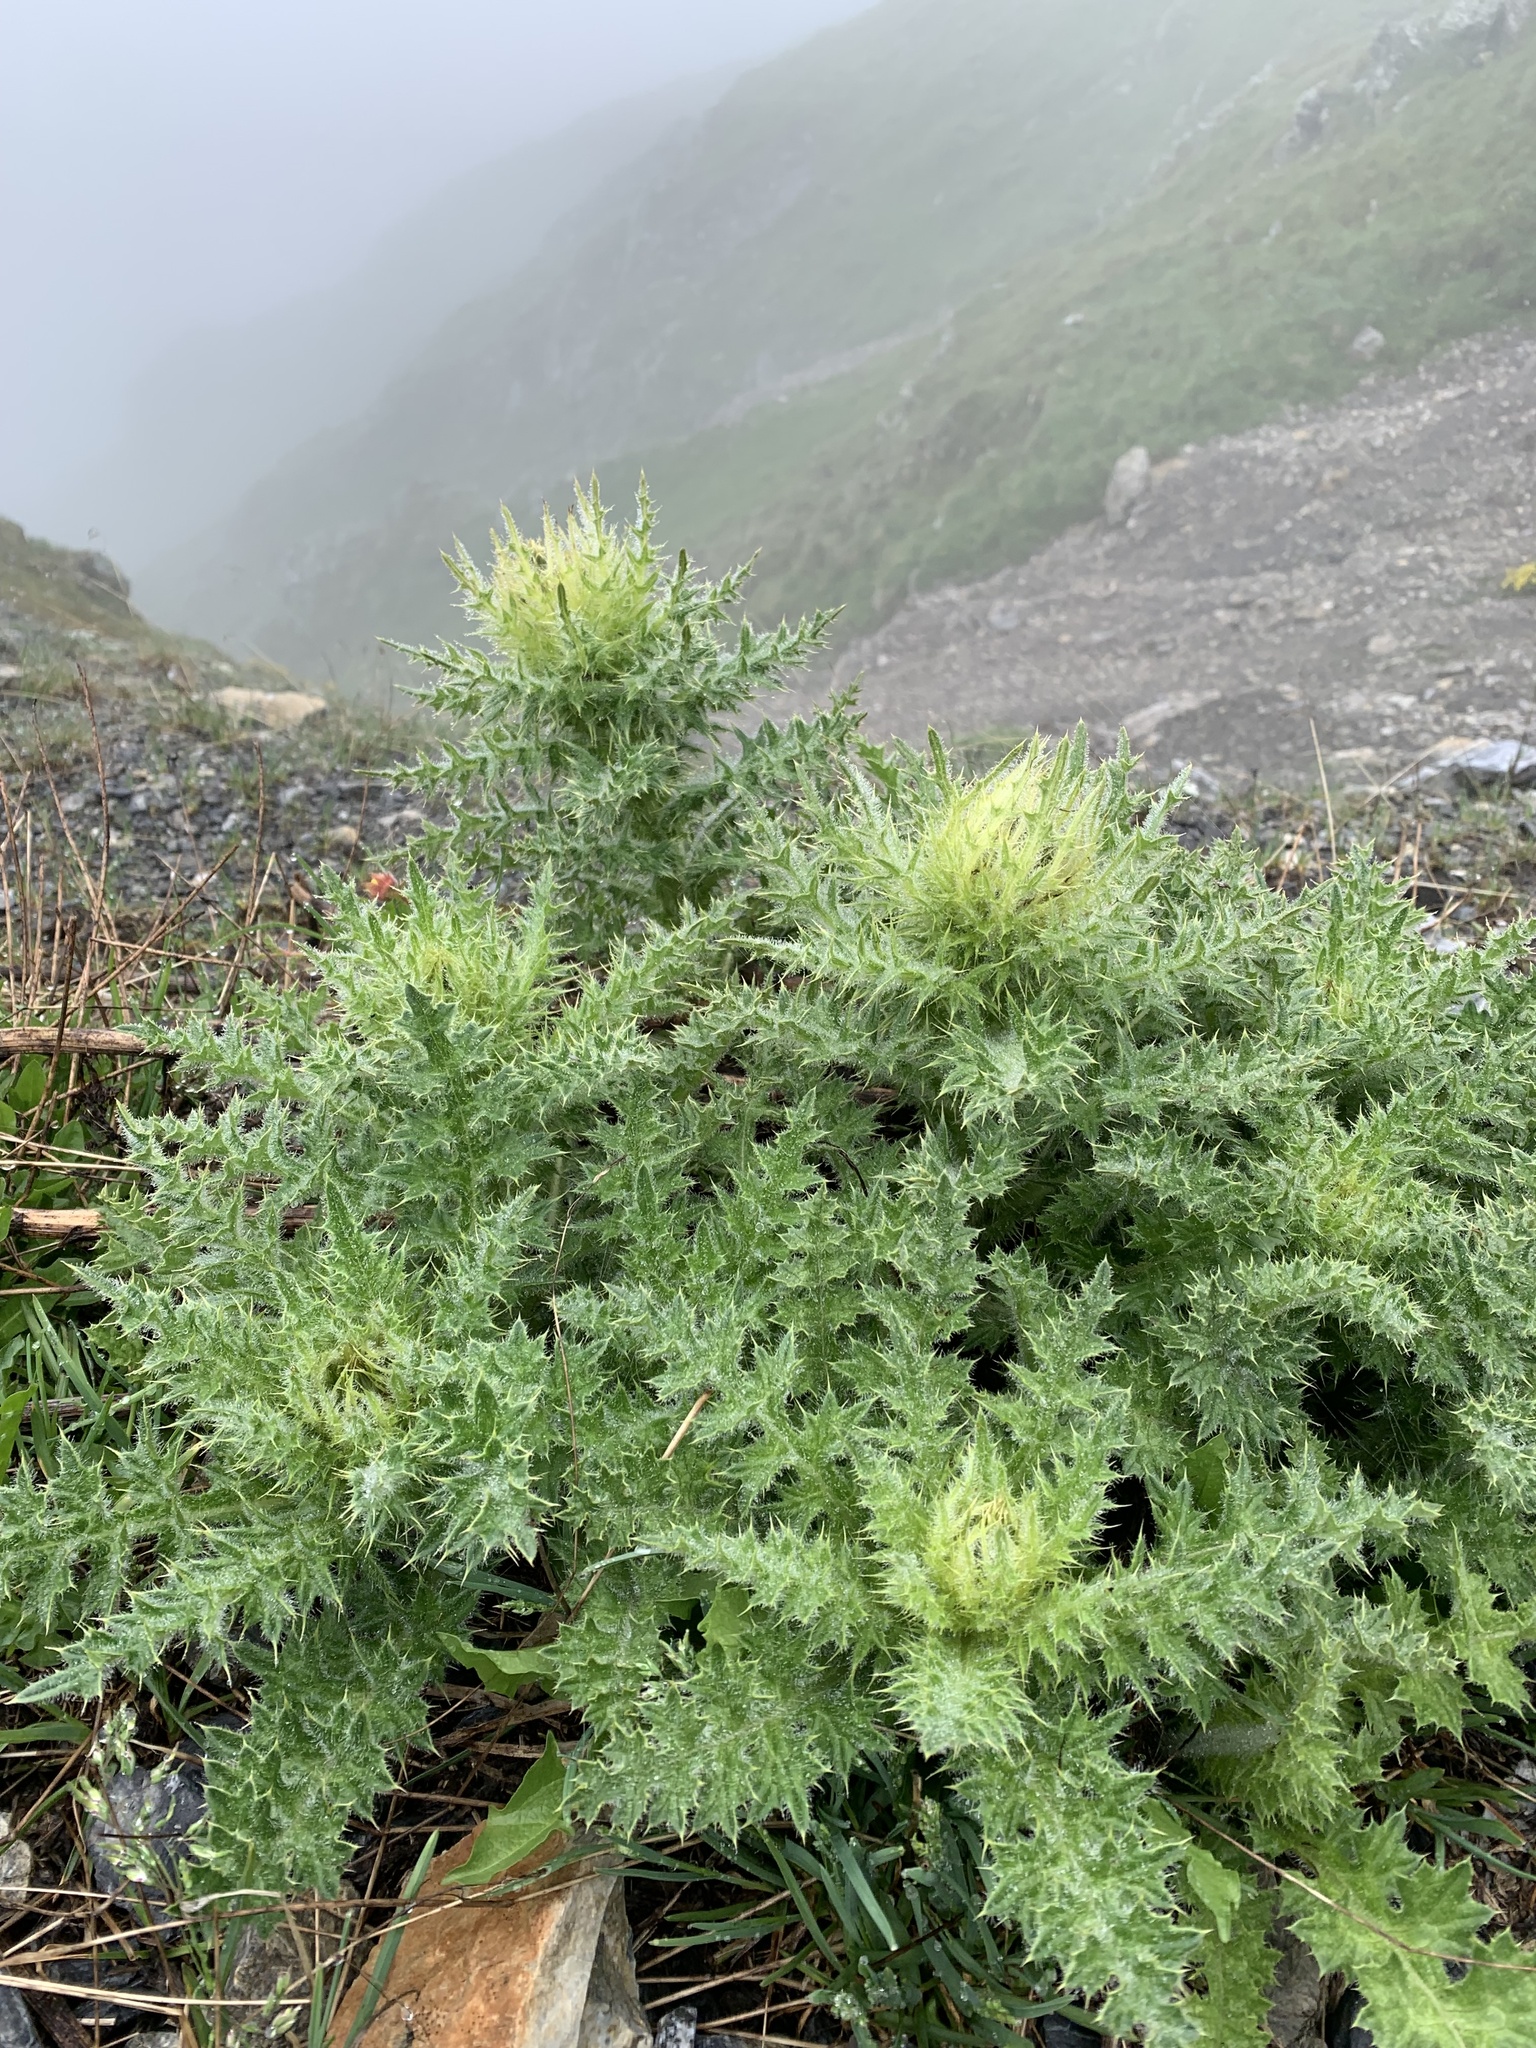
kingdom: Plantae
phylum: Tracheophyta
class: Magnoliopsida
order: Asterales
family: Asteraceae
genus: Cirsium
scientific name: Cirsium spinosissimum
